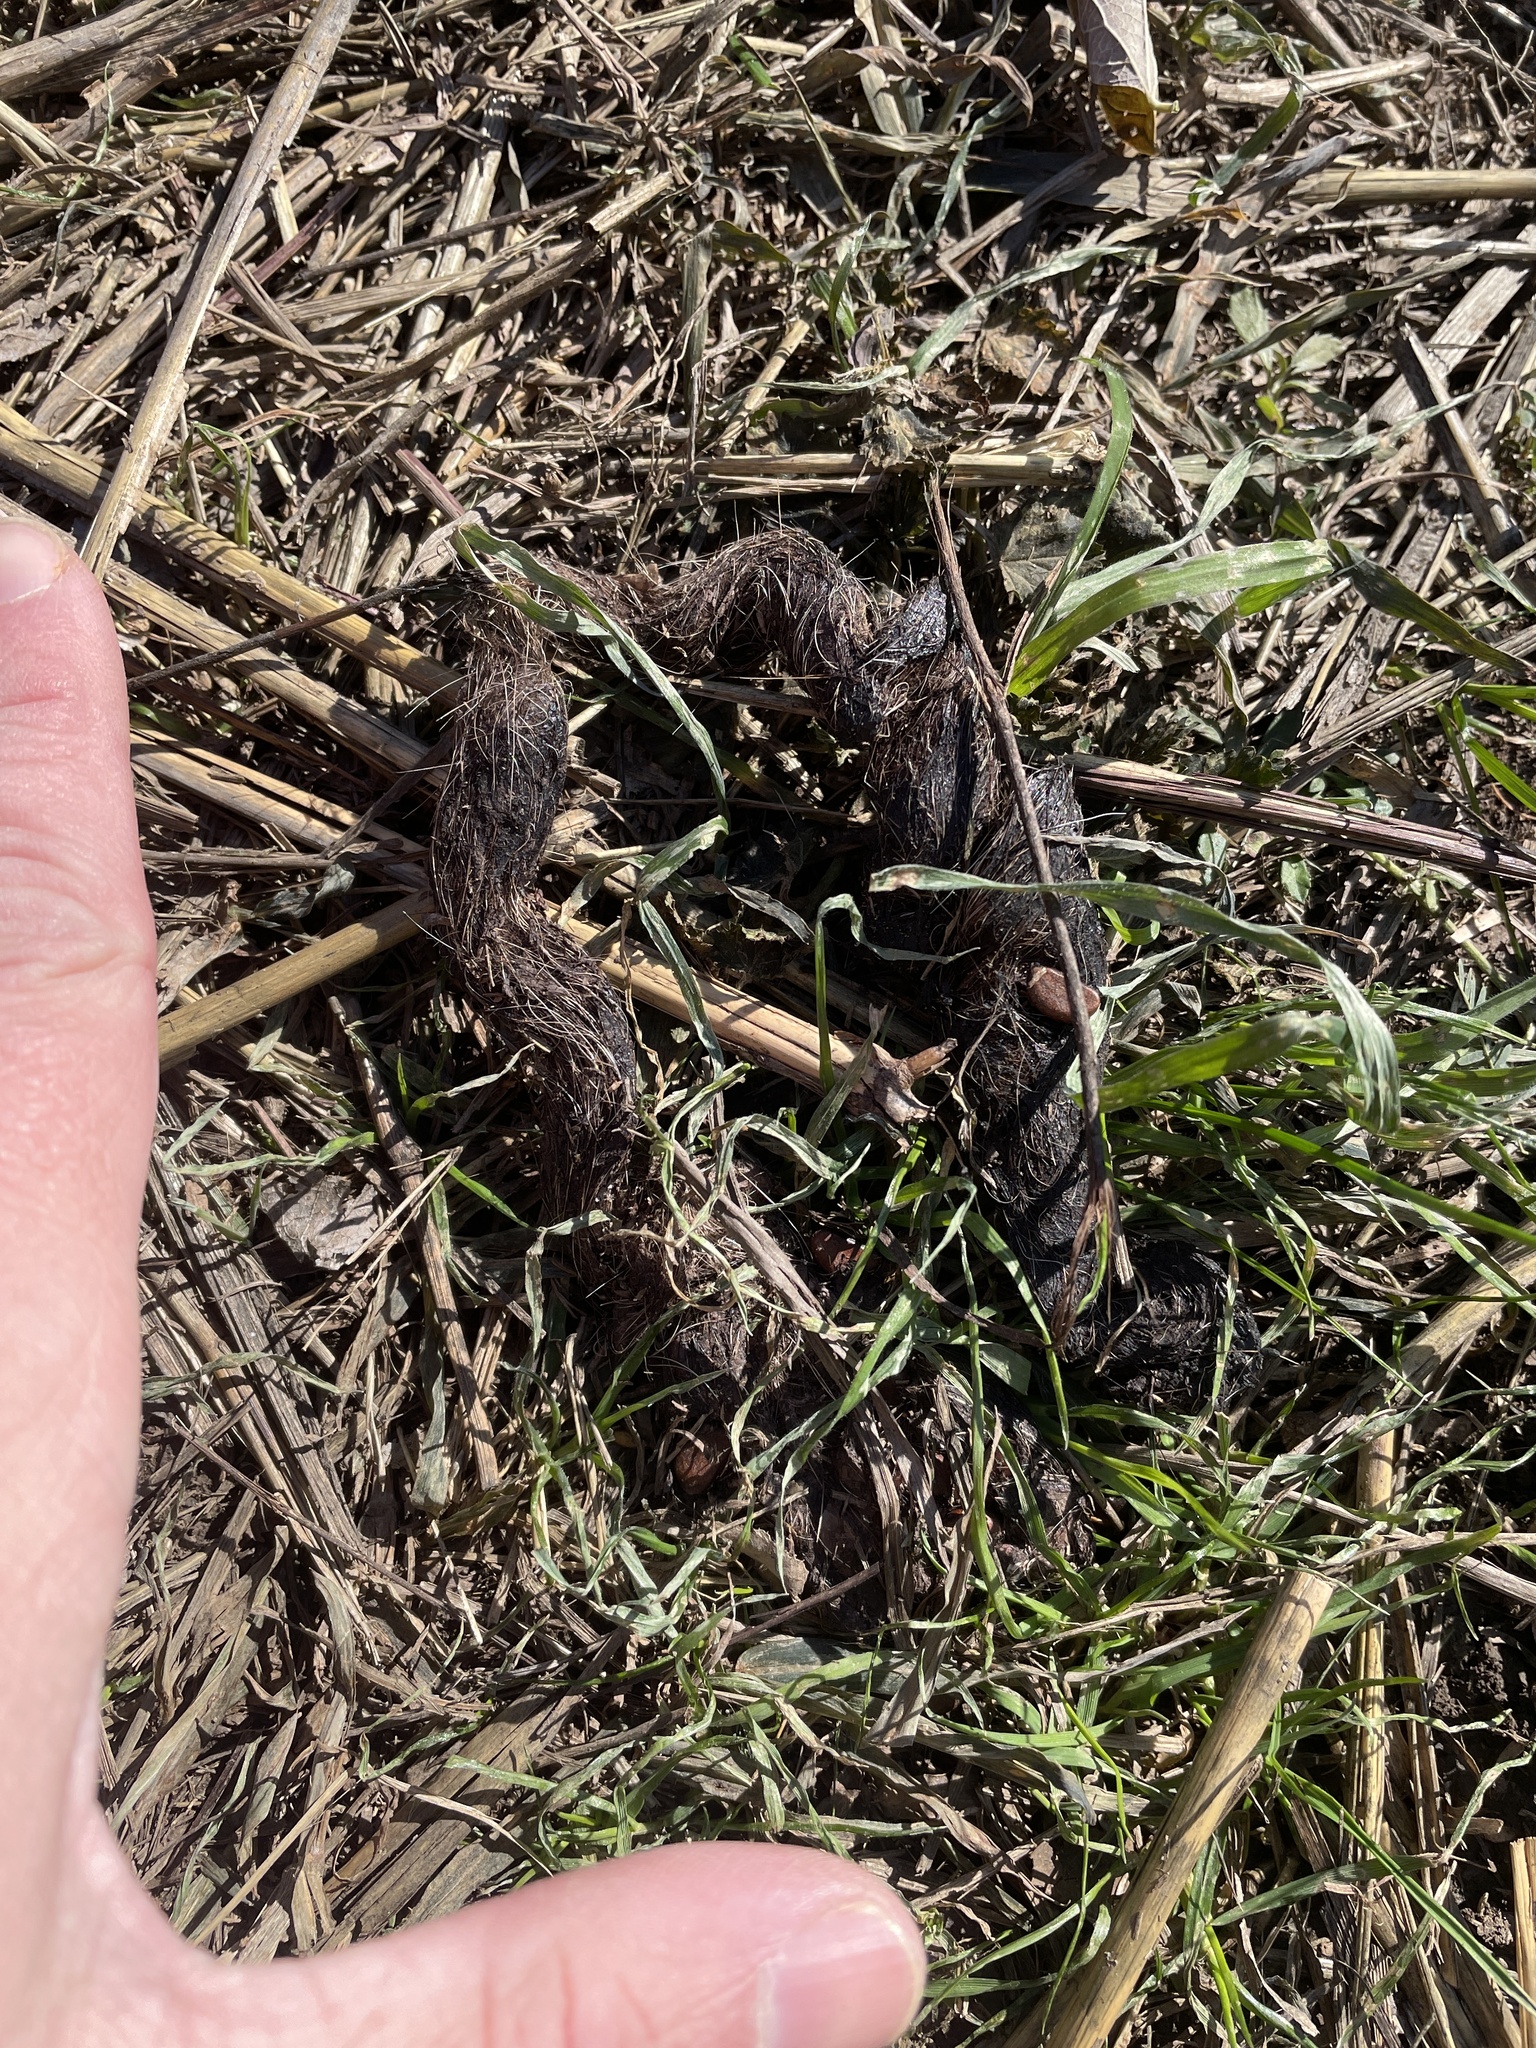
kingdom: Animalia
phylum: Chordata
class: Mammalia
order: Carnivora
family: Canidae
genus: Canis
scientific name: Canis latrans
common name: Coyote
